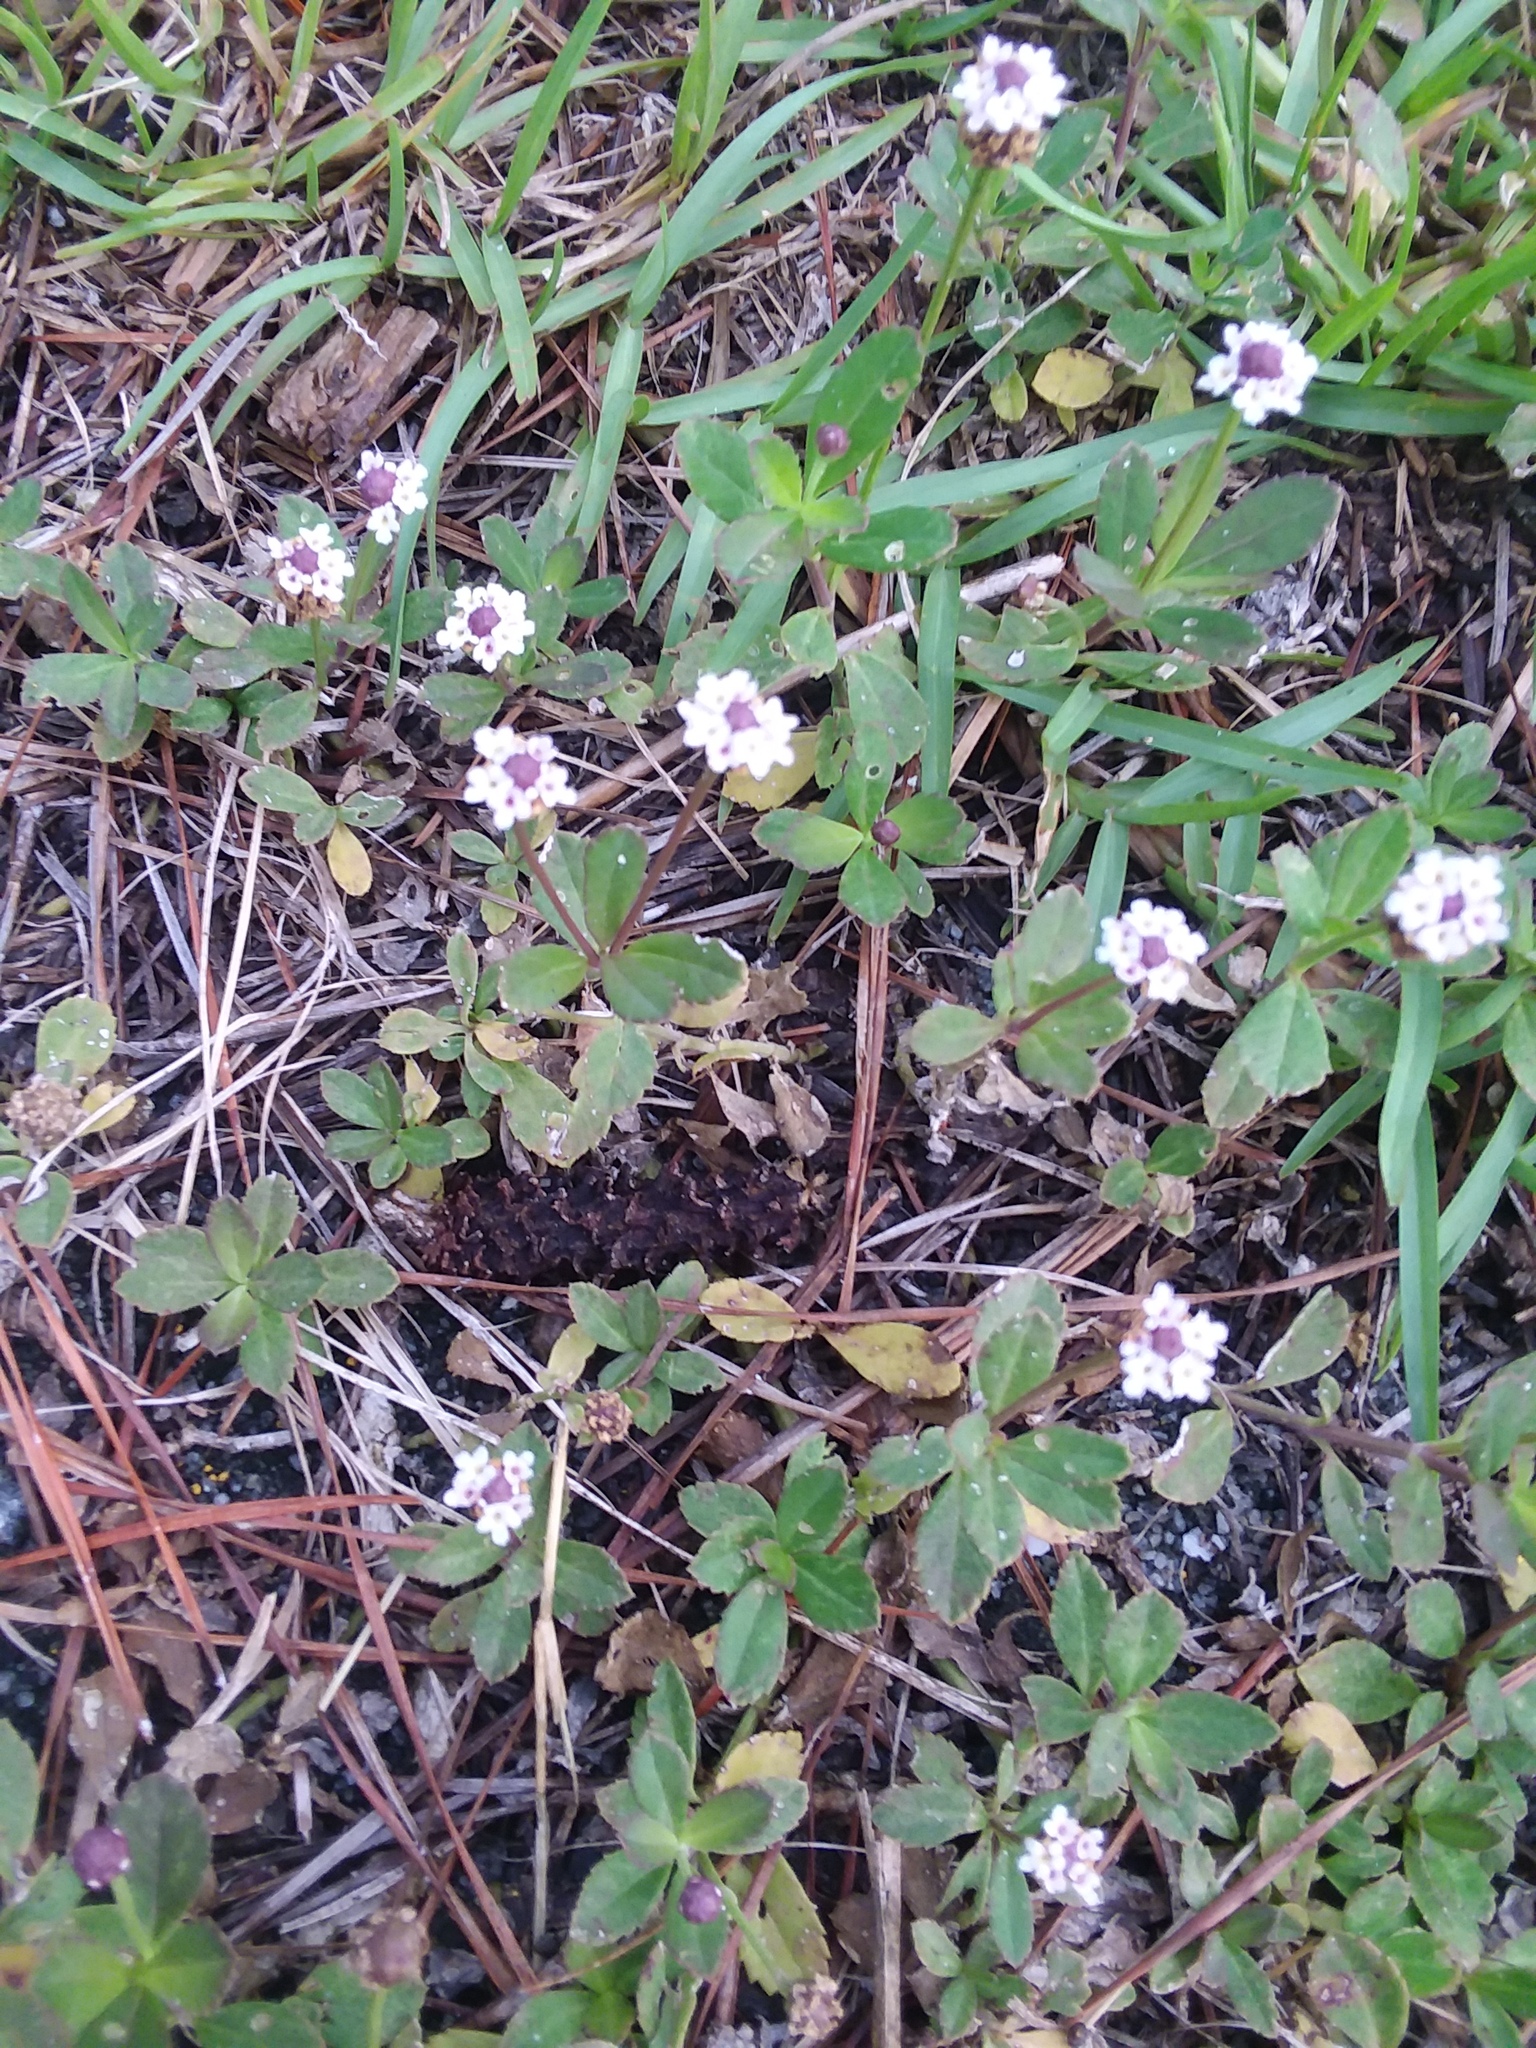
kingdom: Plantae
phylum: Tracheophyta
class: Magnoliopsida
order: Lamiales
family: Verbenaceae
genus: Phyla
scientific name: Phyla nodiflora
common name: Frogfruit
